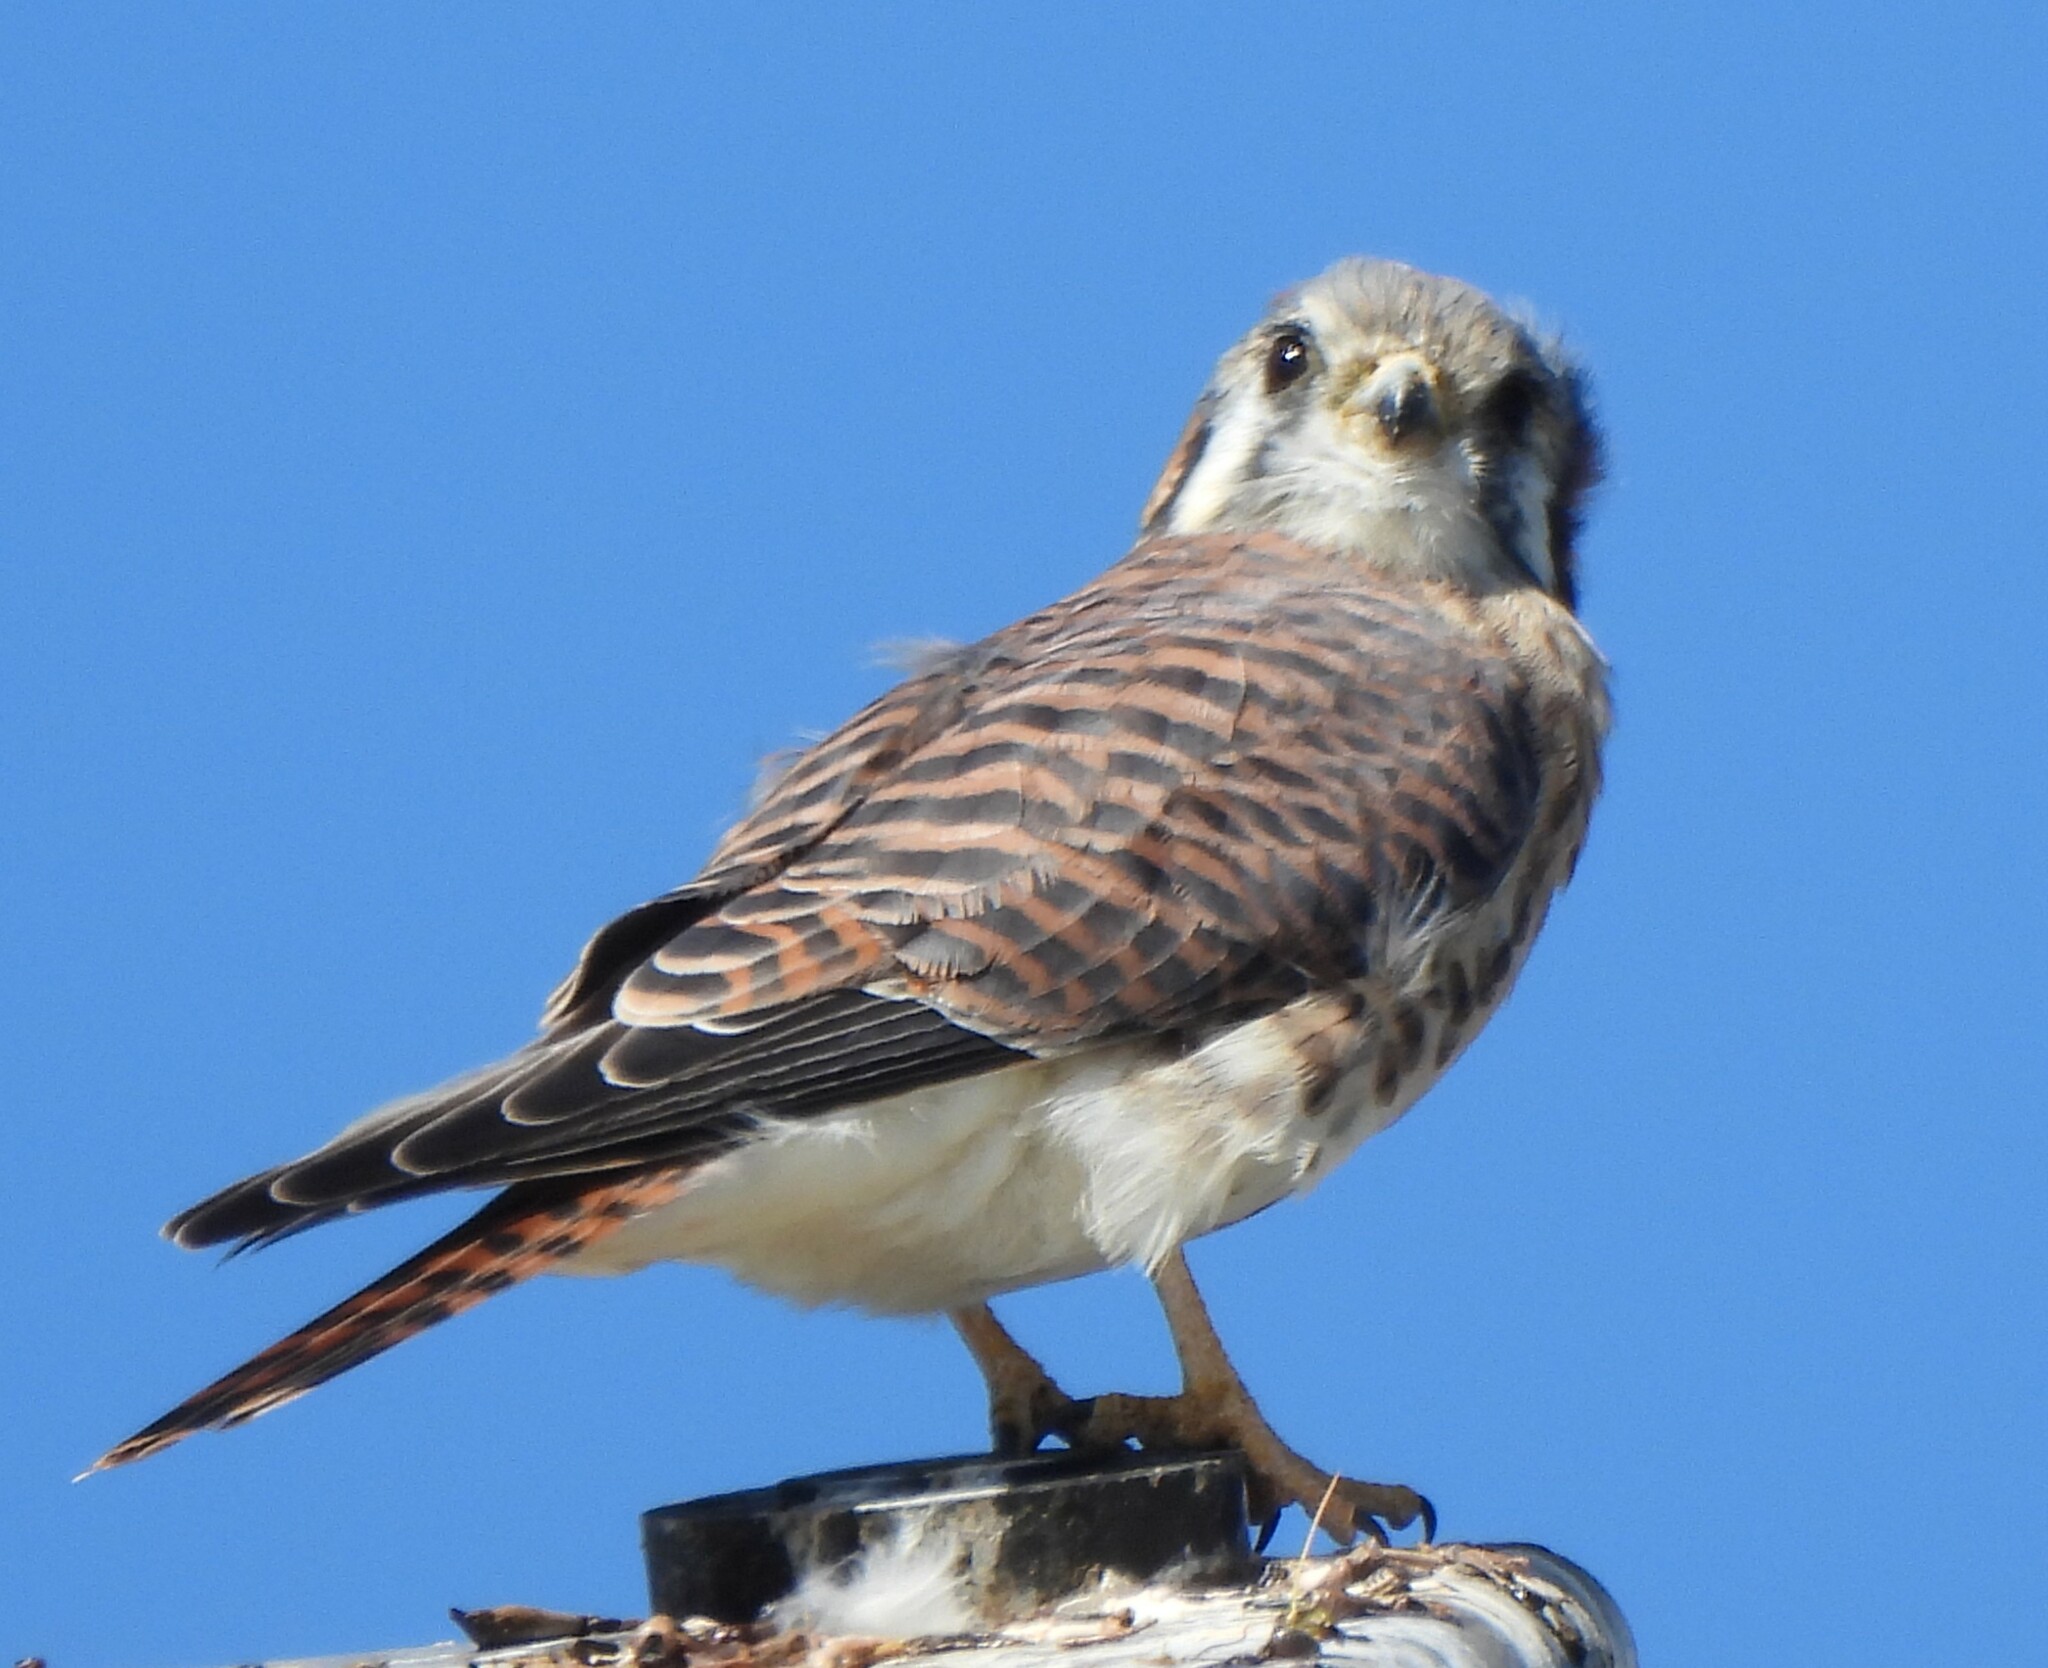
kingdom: Animalia
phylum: Chordata
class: Aves
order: Falconiformes
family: Falconidae
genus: Falco
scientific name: Falco sparverius
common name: American kestrel
